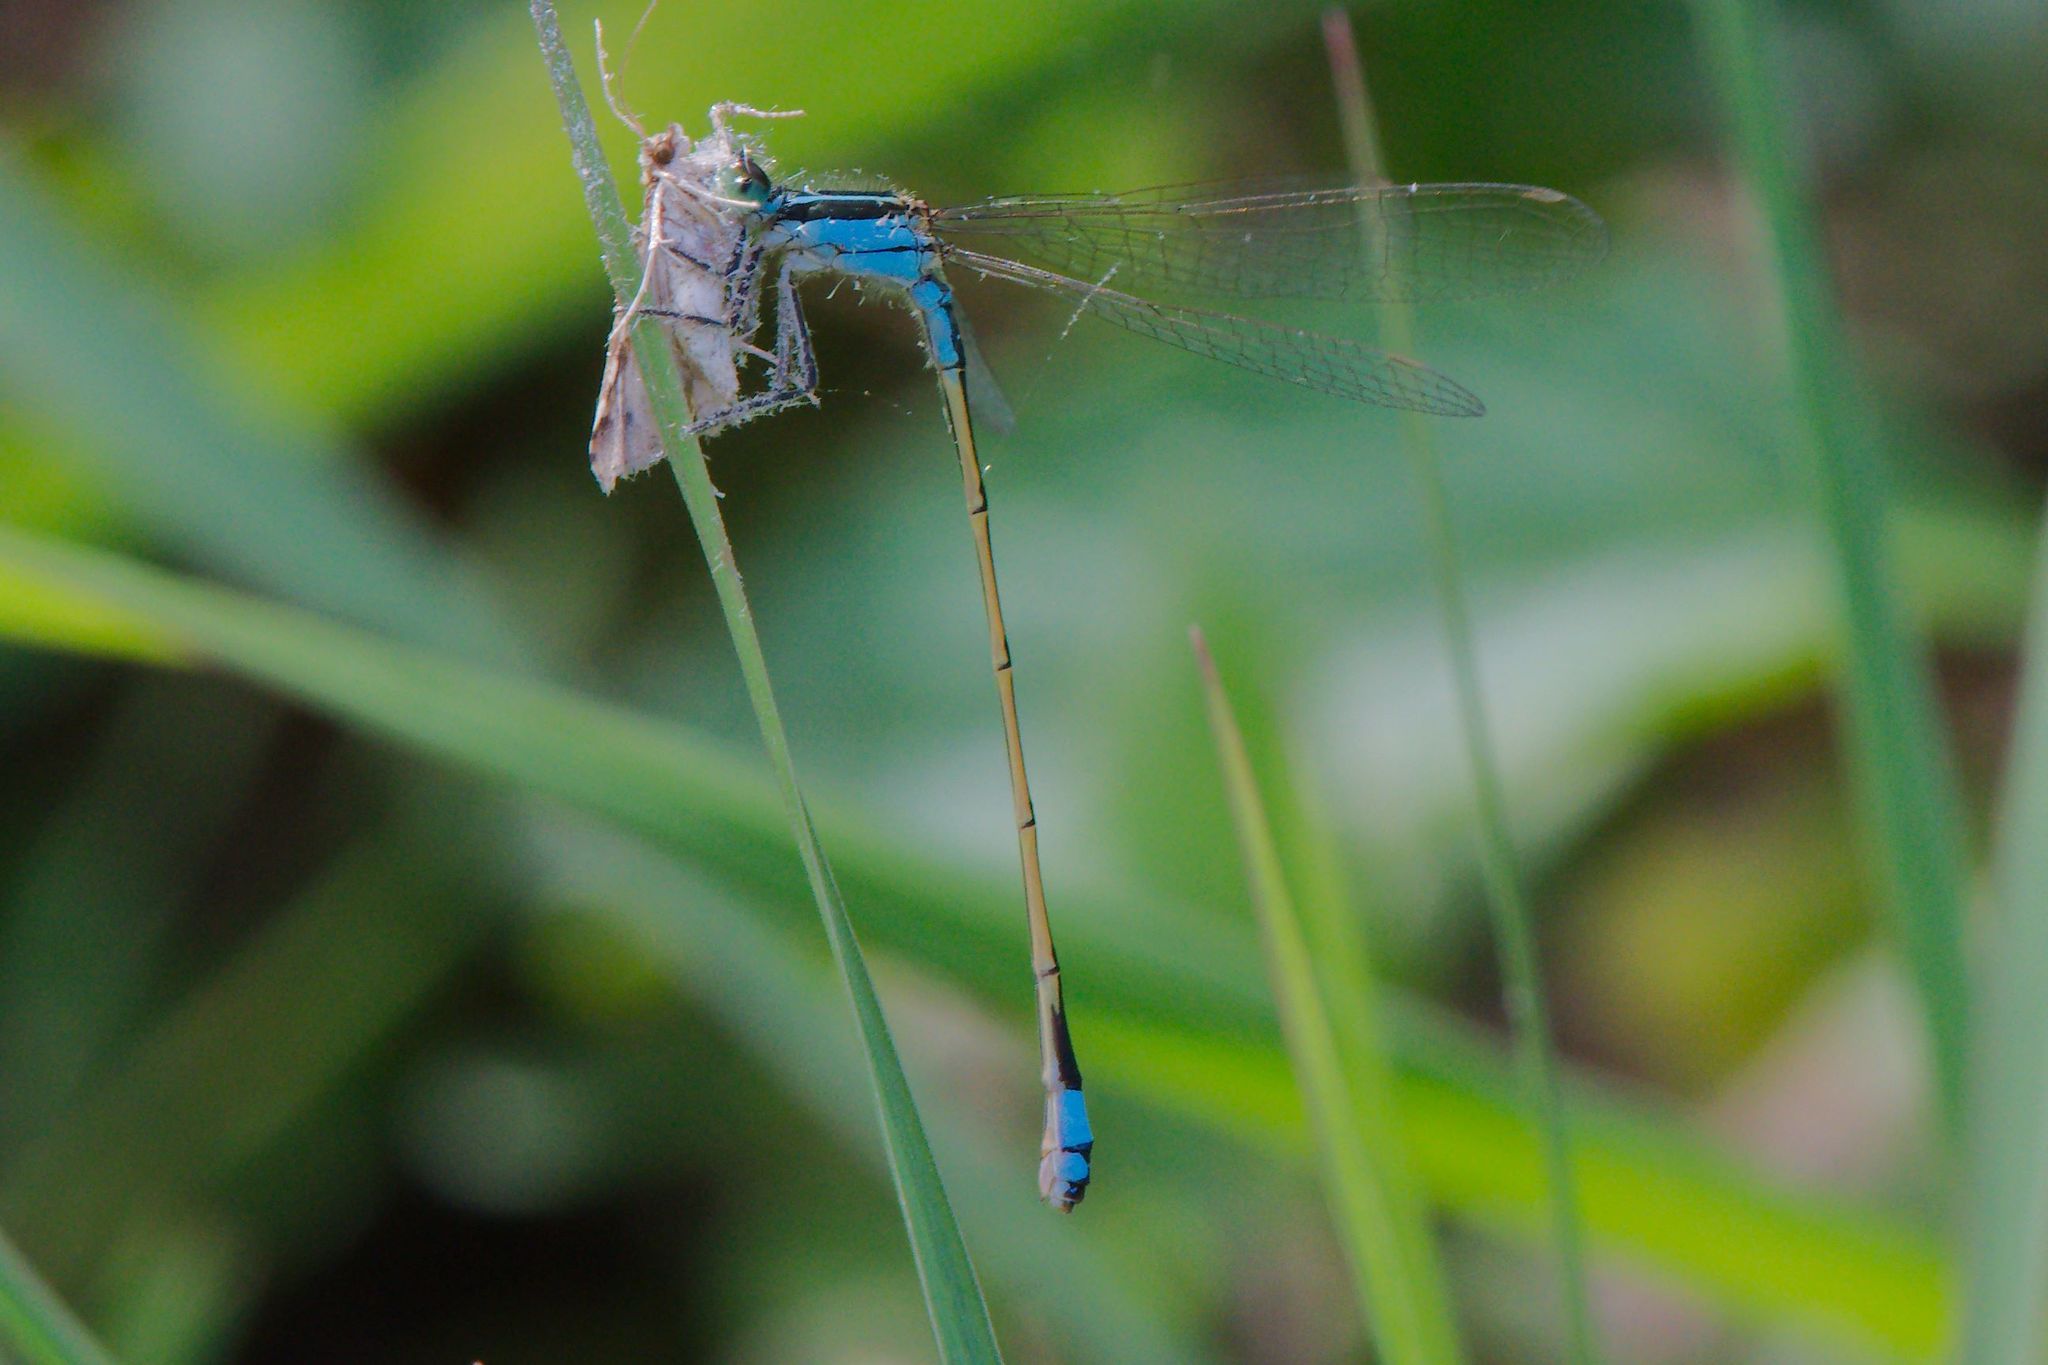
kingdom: Animalia
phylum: Arthropoda
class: Insecta
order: Odonata
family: Coenagrionidae
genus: Ischnura
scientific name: Ischnura ramburii
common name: Rambur's forktail
